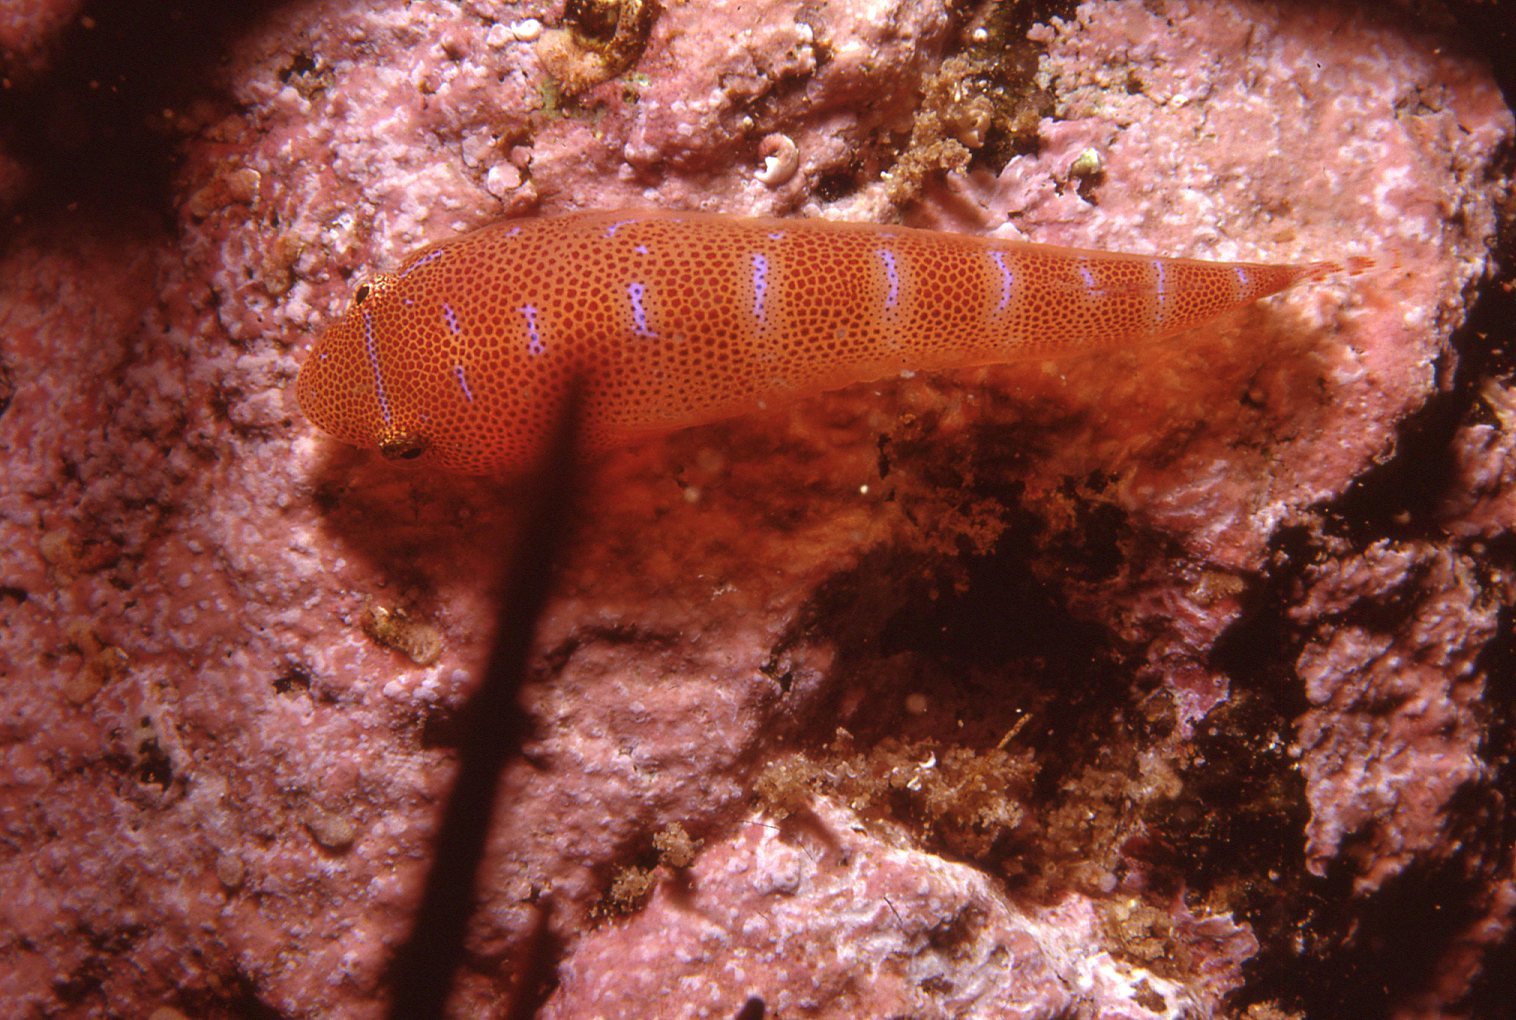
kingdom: Animalia
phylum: Chordata
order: Gobiesociformes
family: Gobiesocidae
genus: Cochleoceps
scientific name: Cochleoceps orientalis
